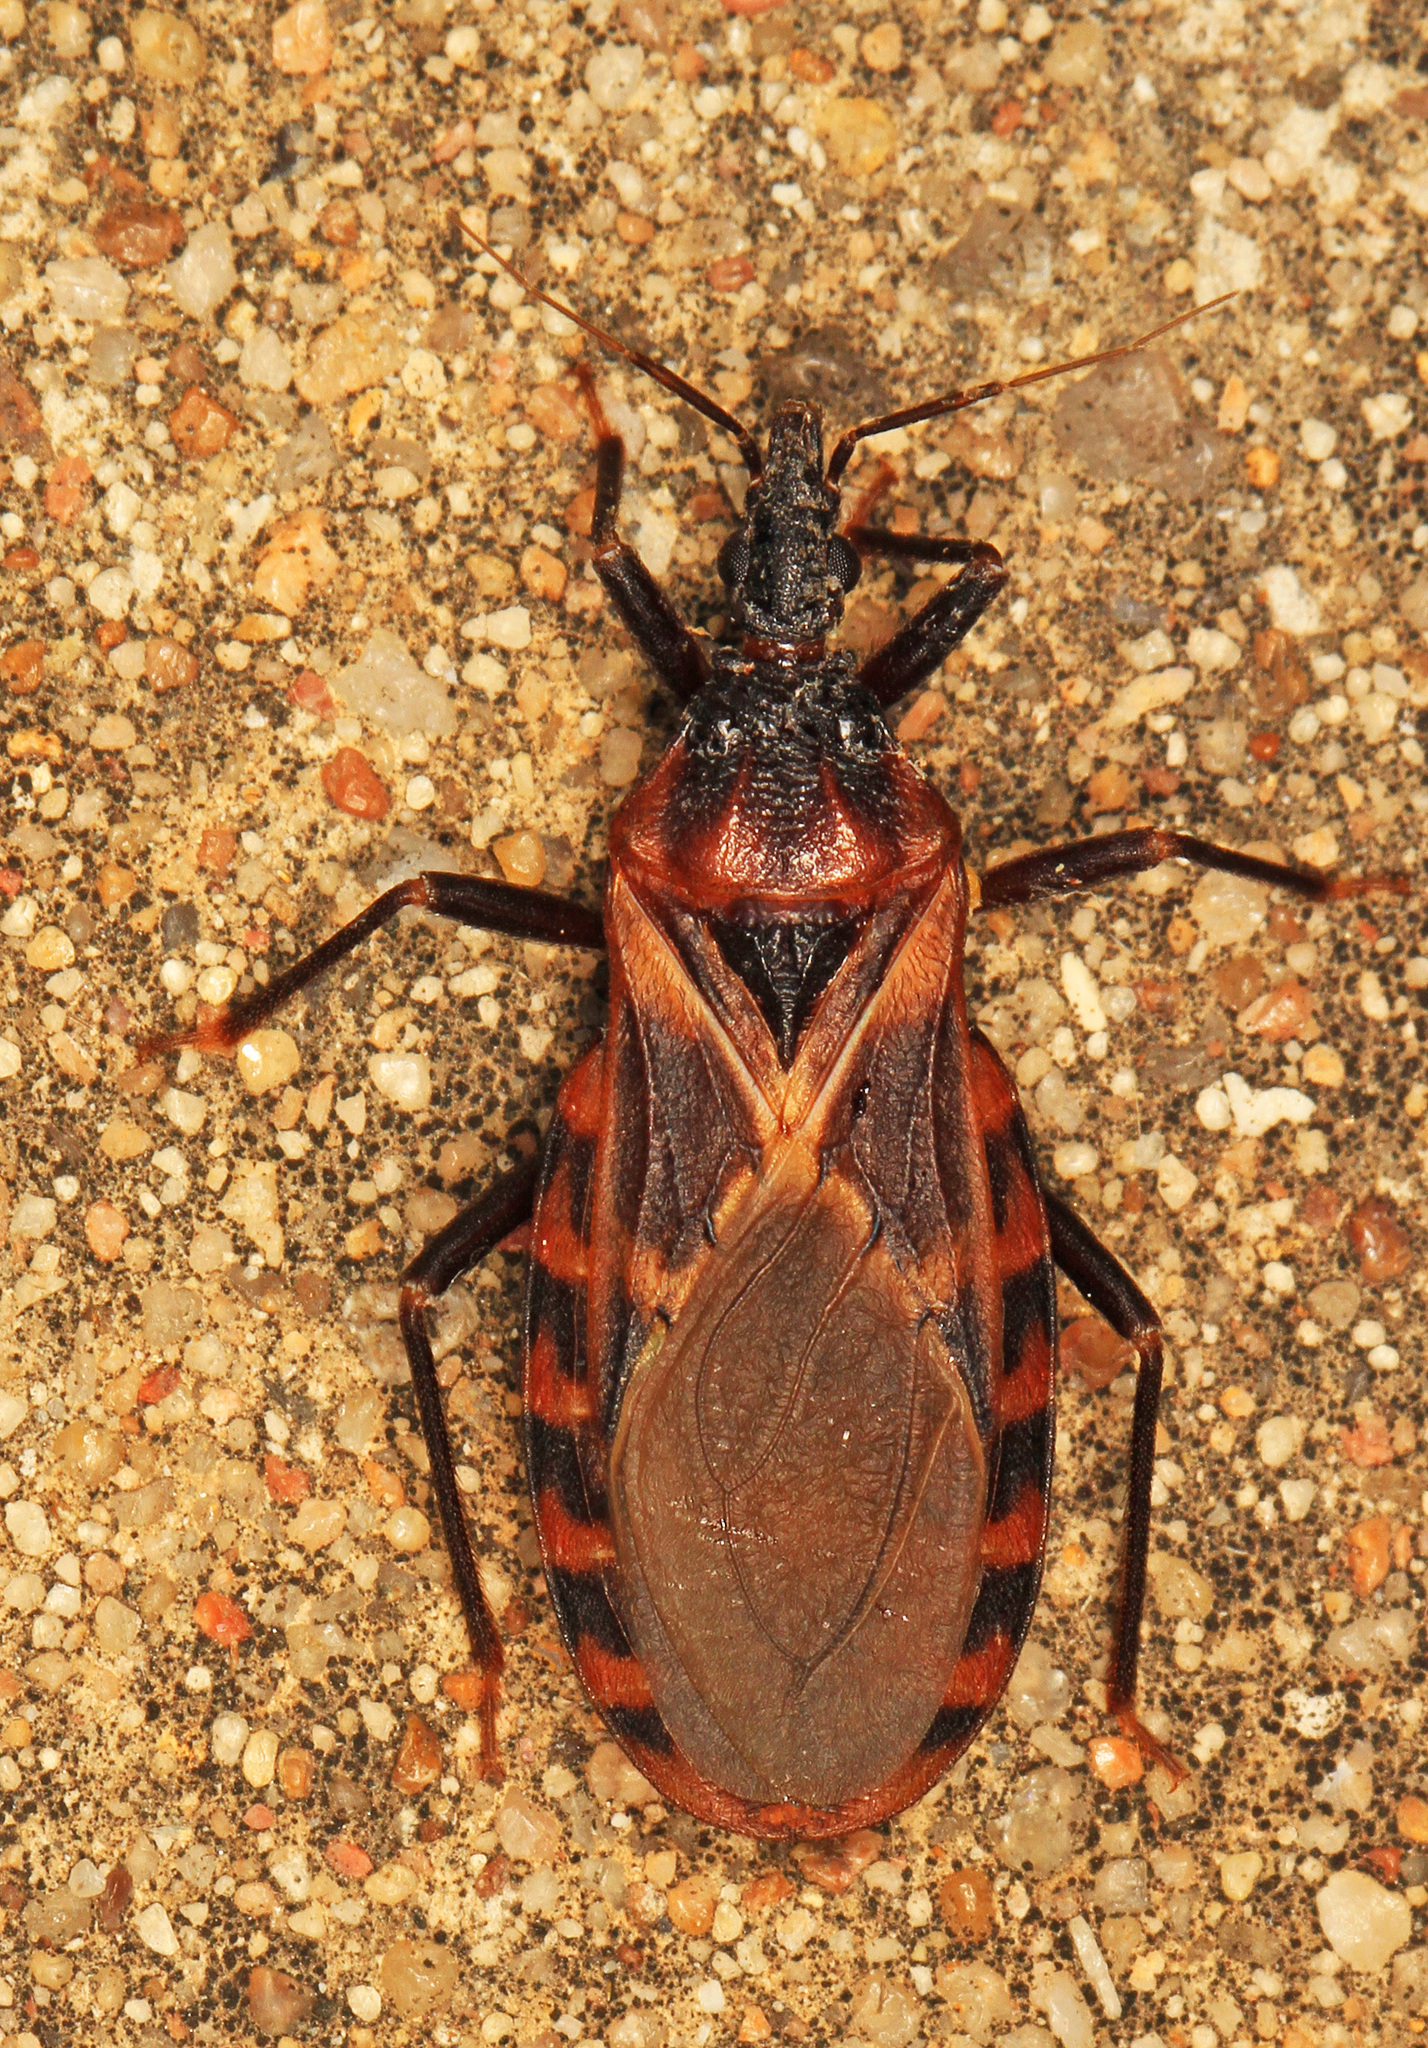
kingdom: Animalia
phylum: Arthropoda
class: Insecta
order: Hemiptera
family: Reduviidae
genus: Triatoma
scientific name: Triatoma lecticularia
